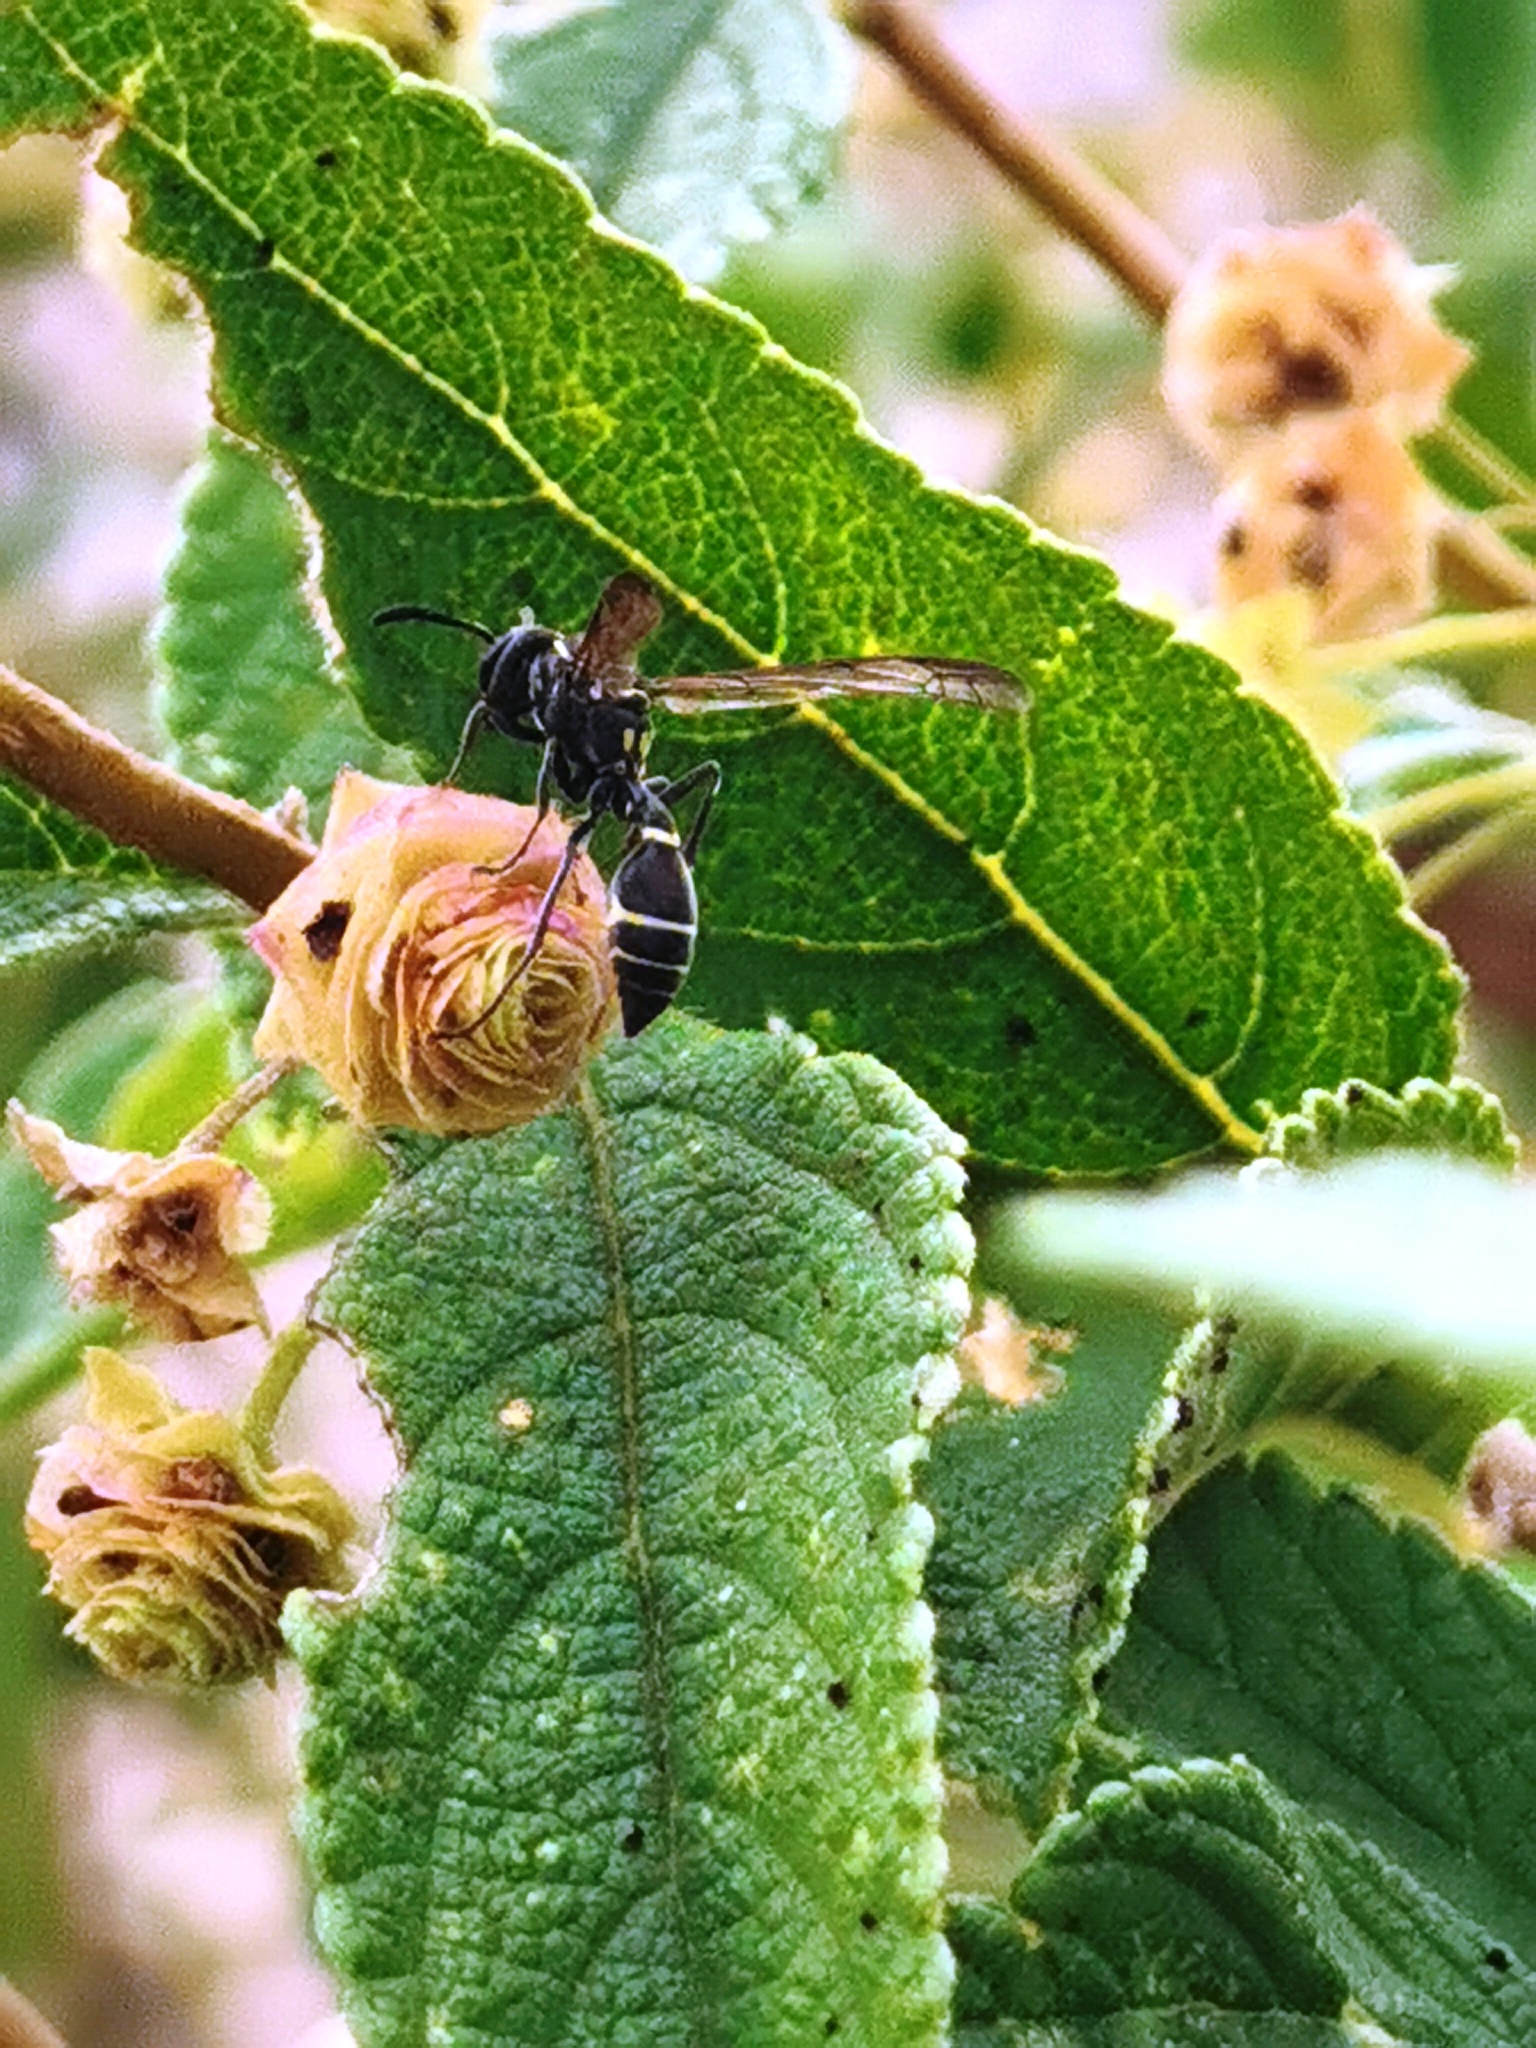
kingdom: Animalia
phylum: Arthropoda
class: Insecta
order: Hymenoptera
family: Eumenidae
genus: Polybia
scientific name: Polybia plebeja
